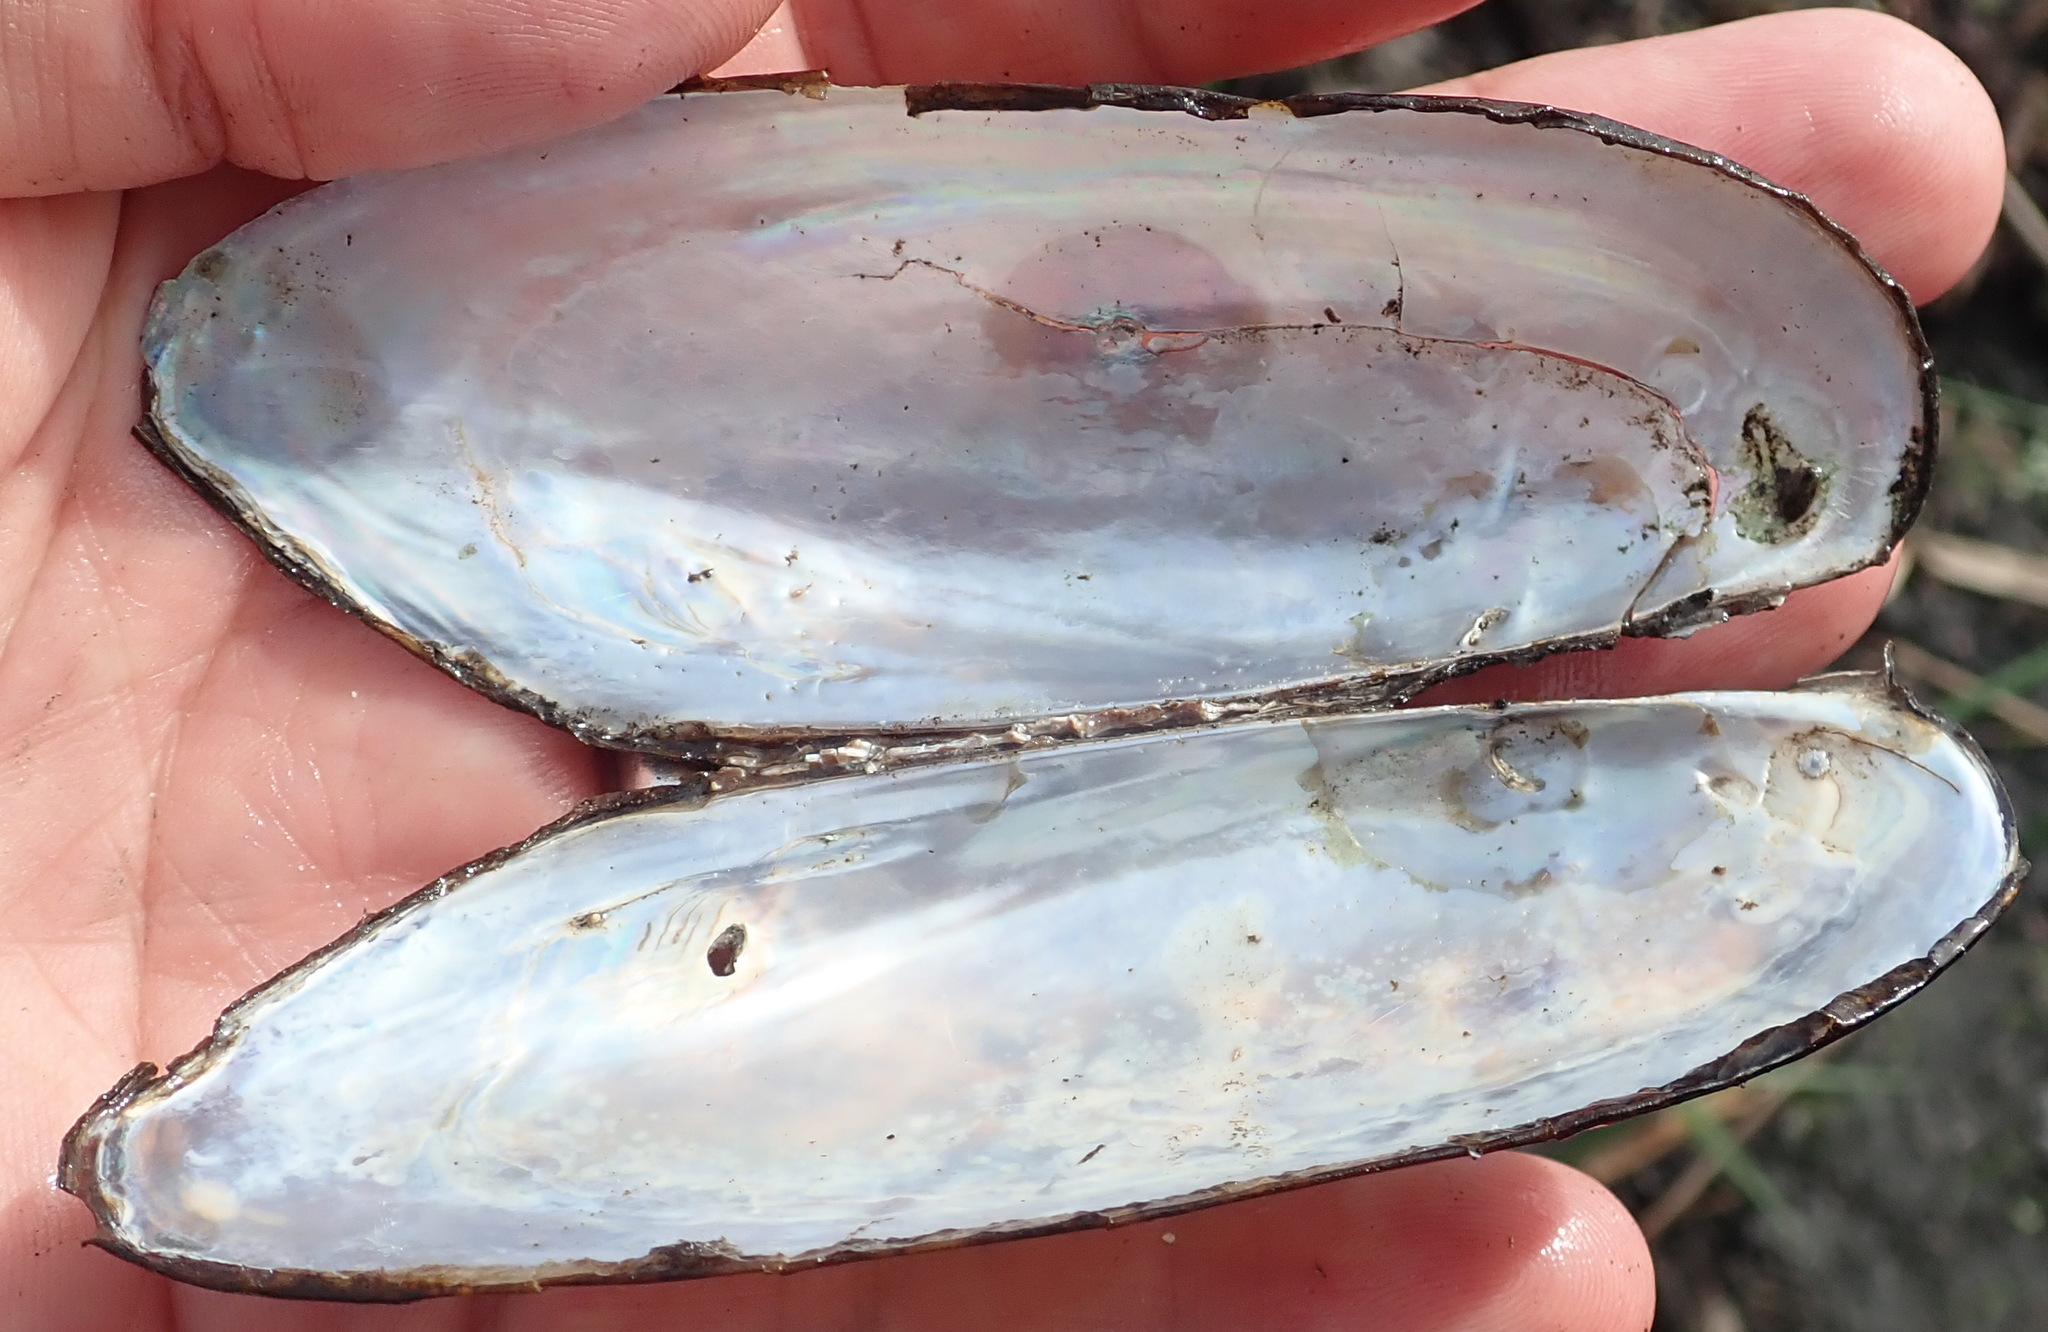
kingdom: Animalia
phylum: Mollusca
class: Bivalvia
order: Unionida
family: Iridinidae
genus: Mutela
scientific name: Mutela zambesiensis
